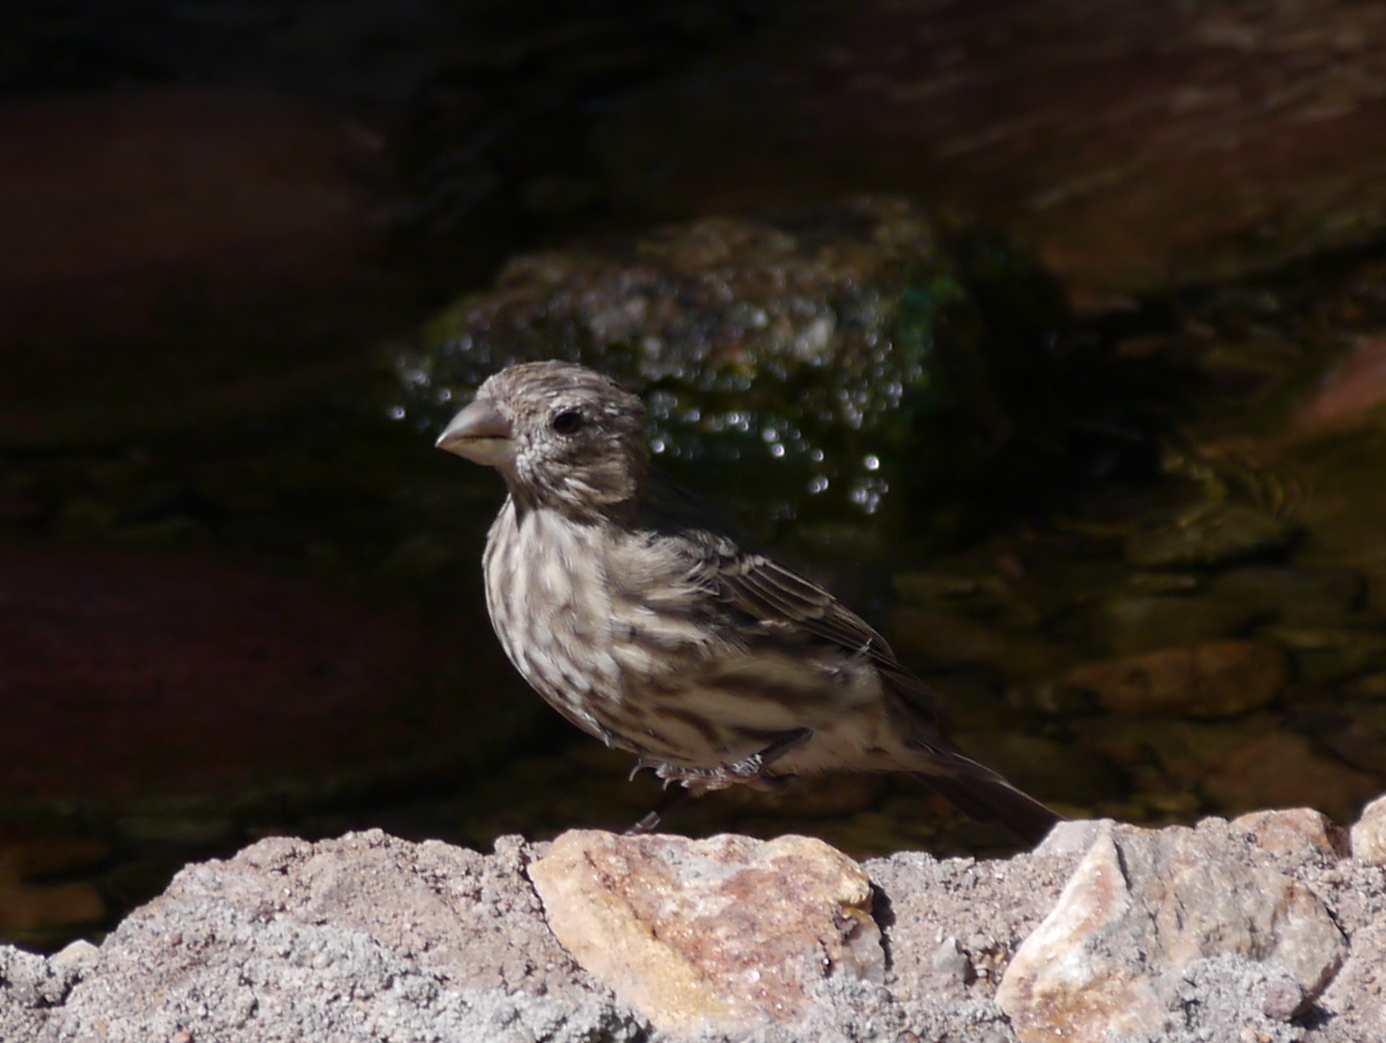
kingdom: Animalia
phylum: Chordata
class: Aves
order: Passeriformes
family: Fringillidae
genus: Haemorhous
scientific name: Haemorhous mexicanus
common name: House finch
